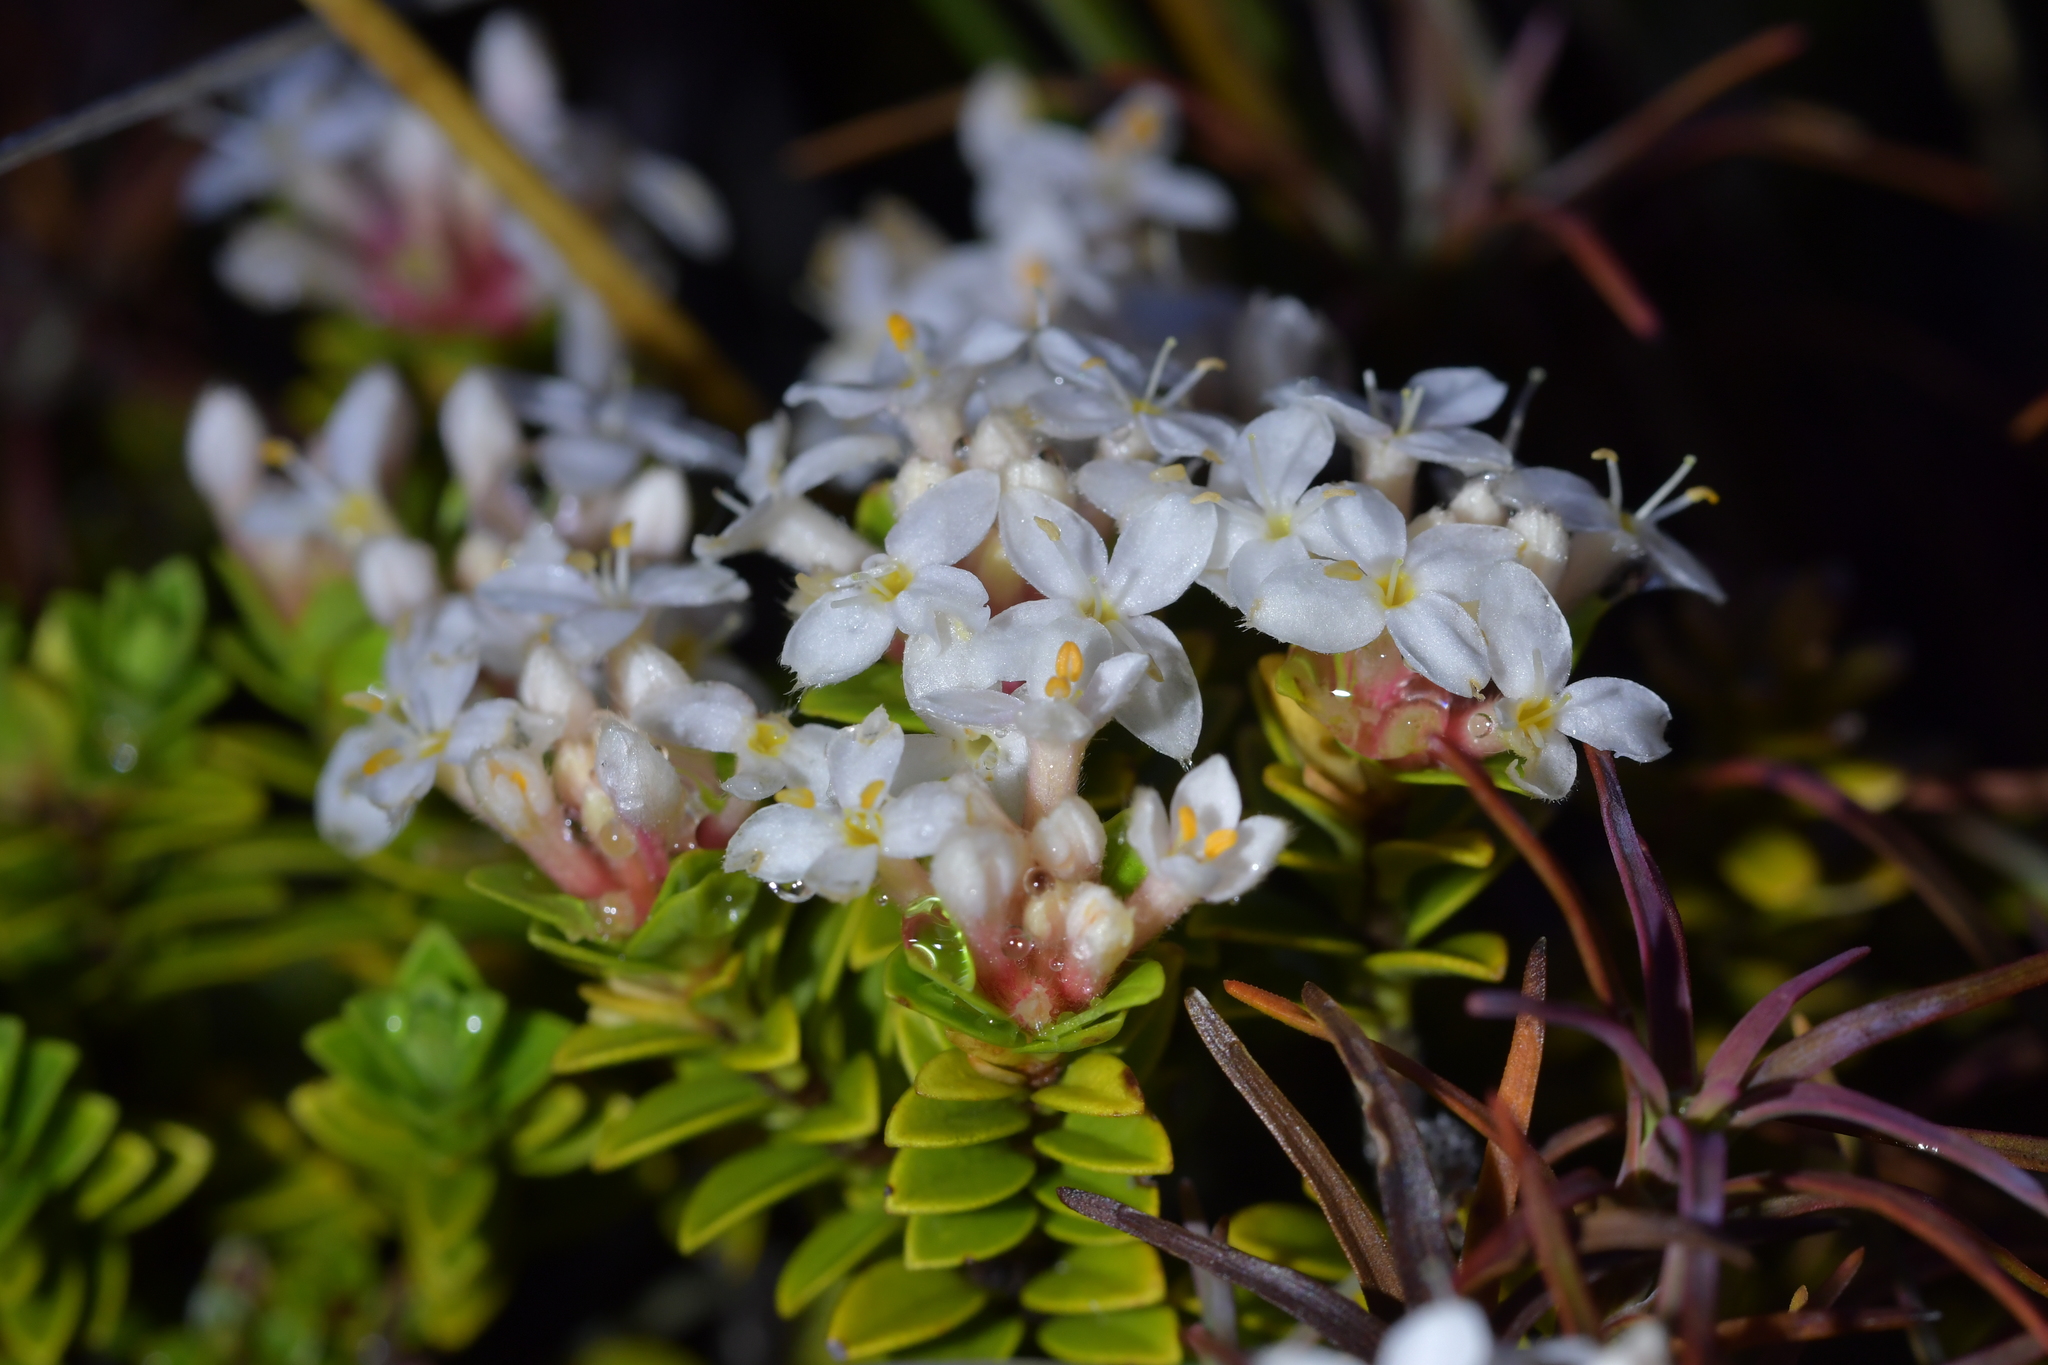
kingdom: Plantae
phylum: Tracheophyta
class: Magnoliopsida
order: Malvales
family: Thymelaeaceae
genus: Pimelea
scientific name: Pimelea buxifolia
